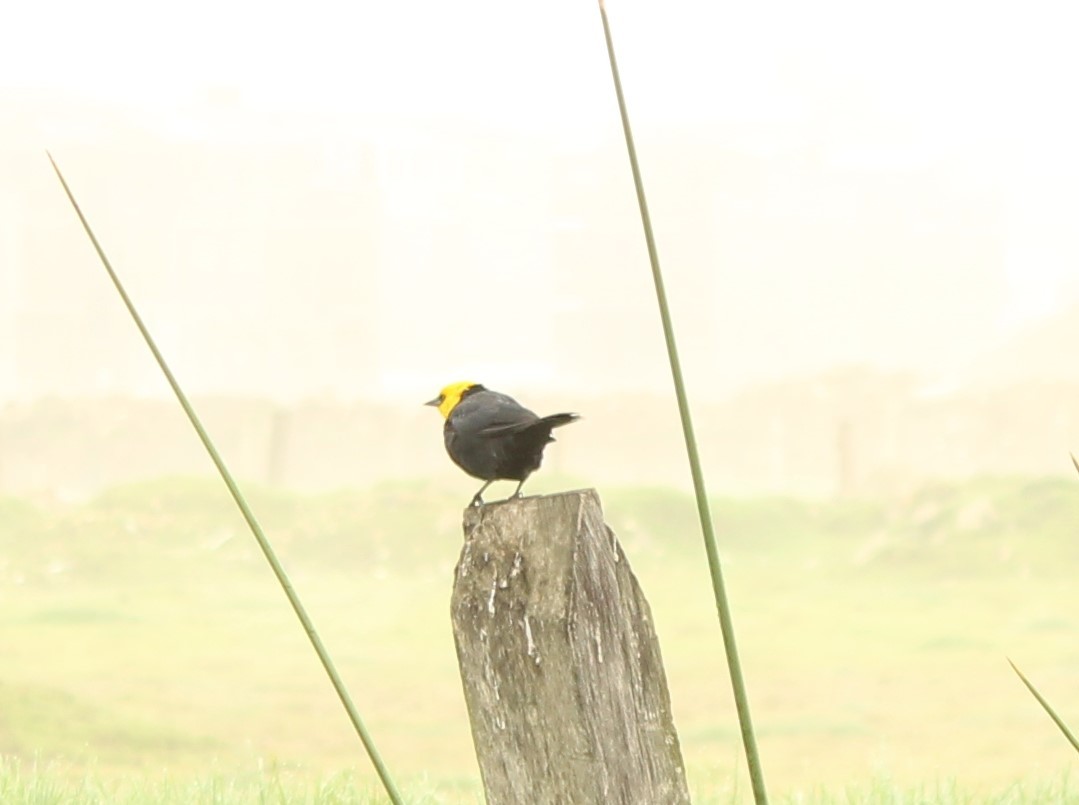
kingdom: Animalia
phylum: Chordata
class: Aves
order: Passeriformes
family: Icteridae
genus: Chrysomus
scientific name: Chrysomus icterocephalus
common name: Yellow-hooded blackbird
